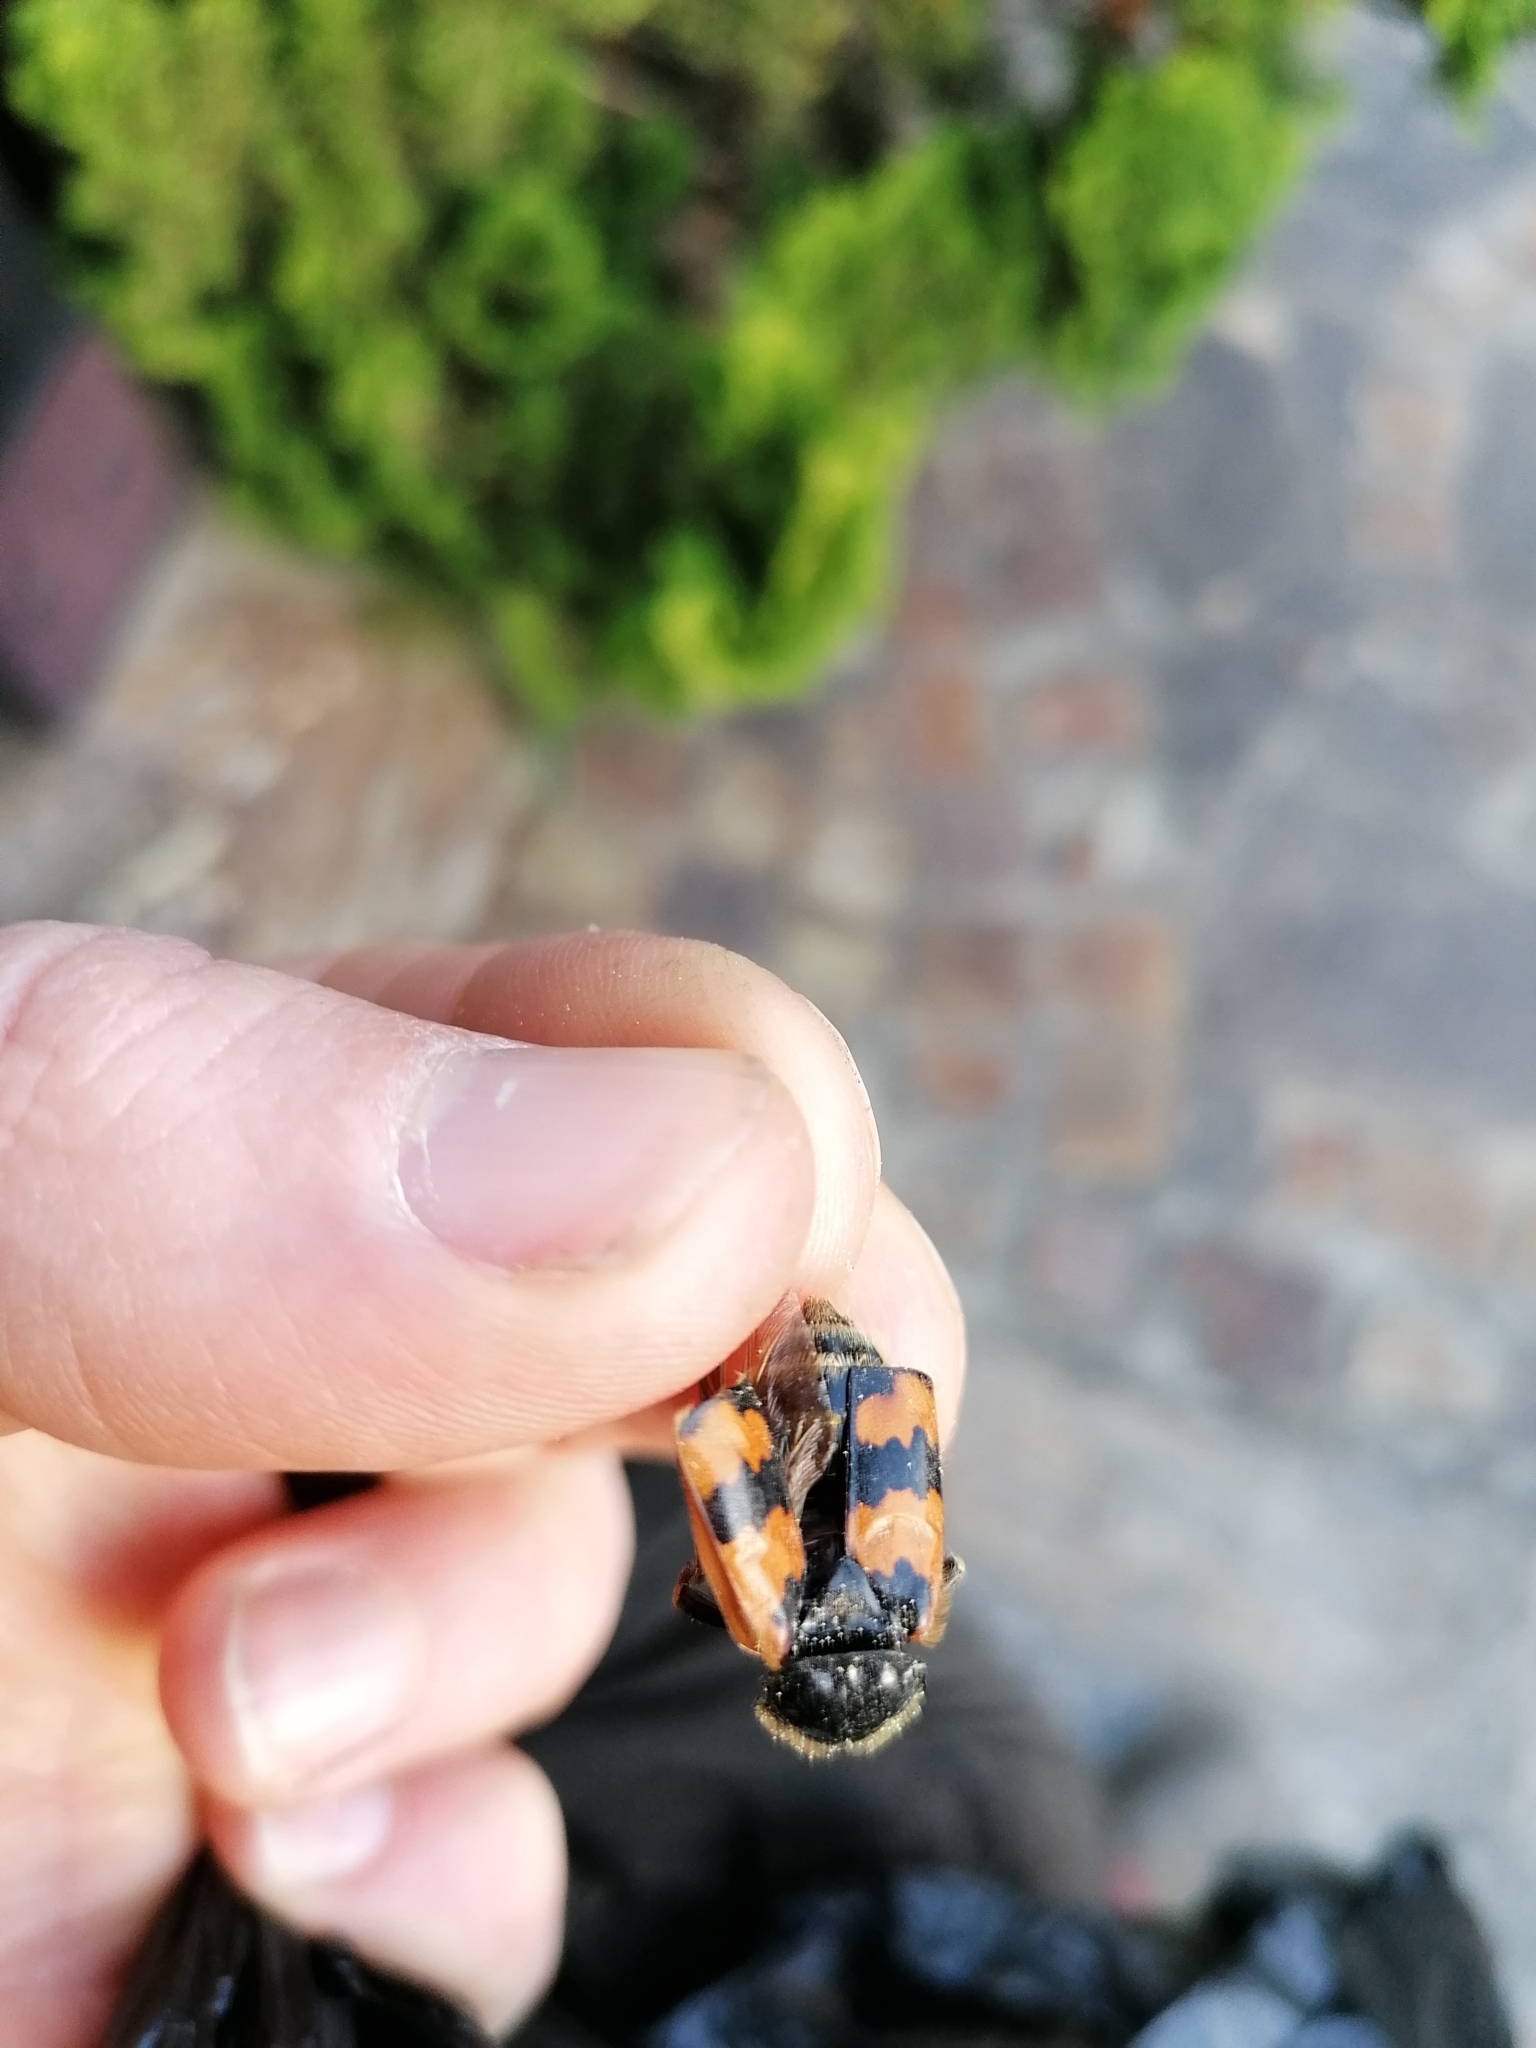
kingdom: Animalia
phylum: Arthropoda
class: Insecta
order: Coleoptera
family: Staphylinidae
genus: Nicrophorus
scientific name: Nicrophorus vespillo
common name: Common burying beetle
